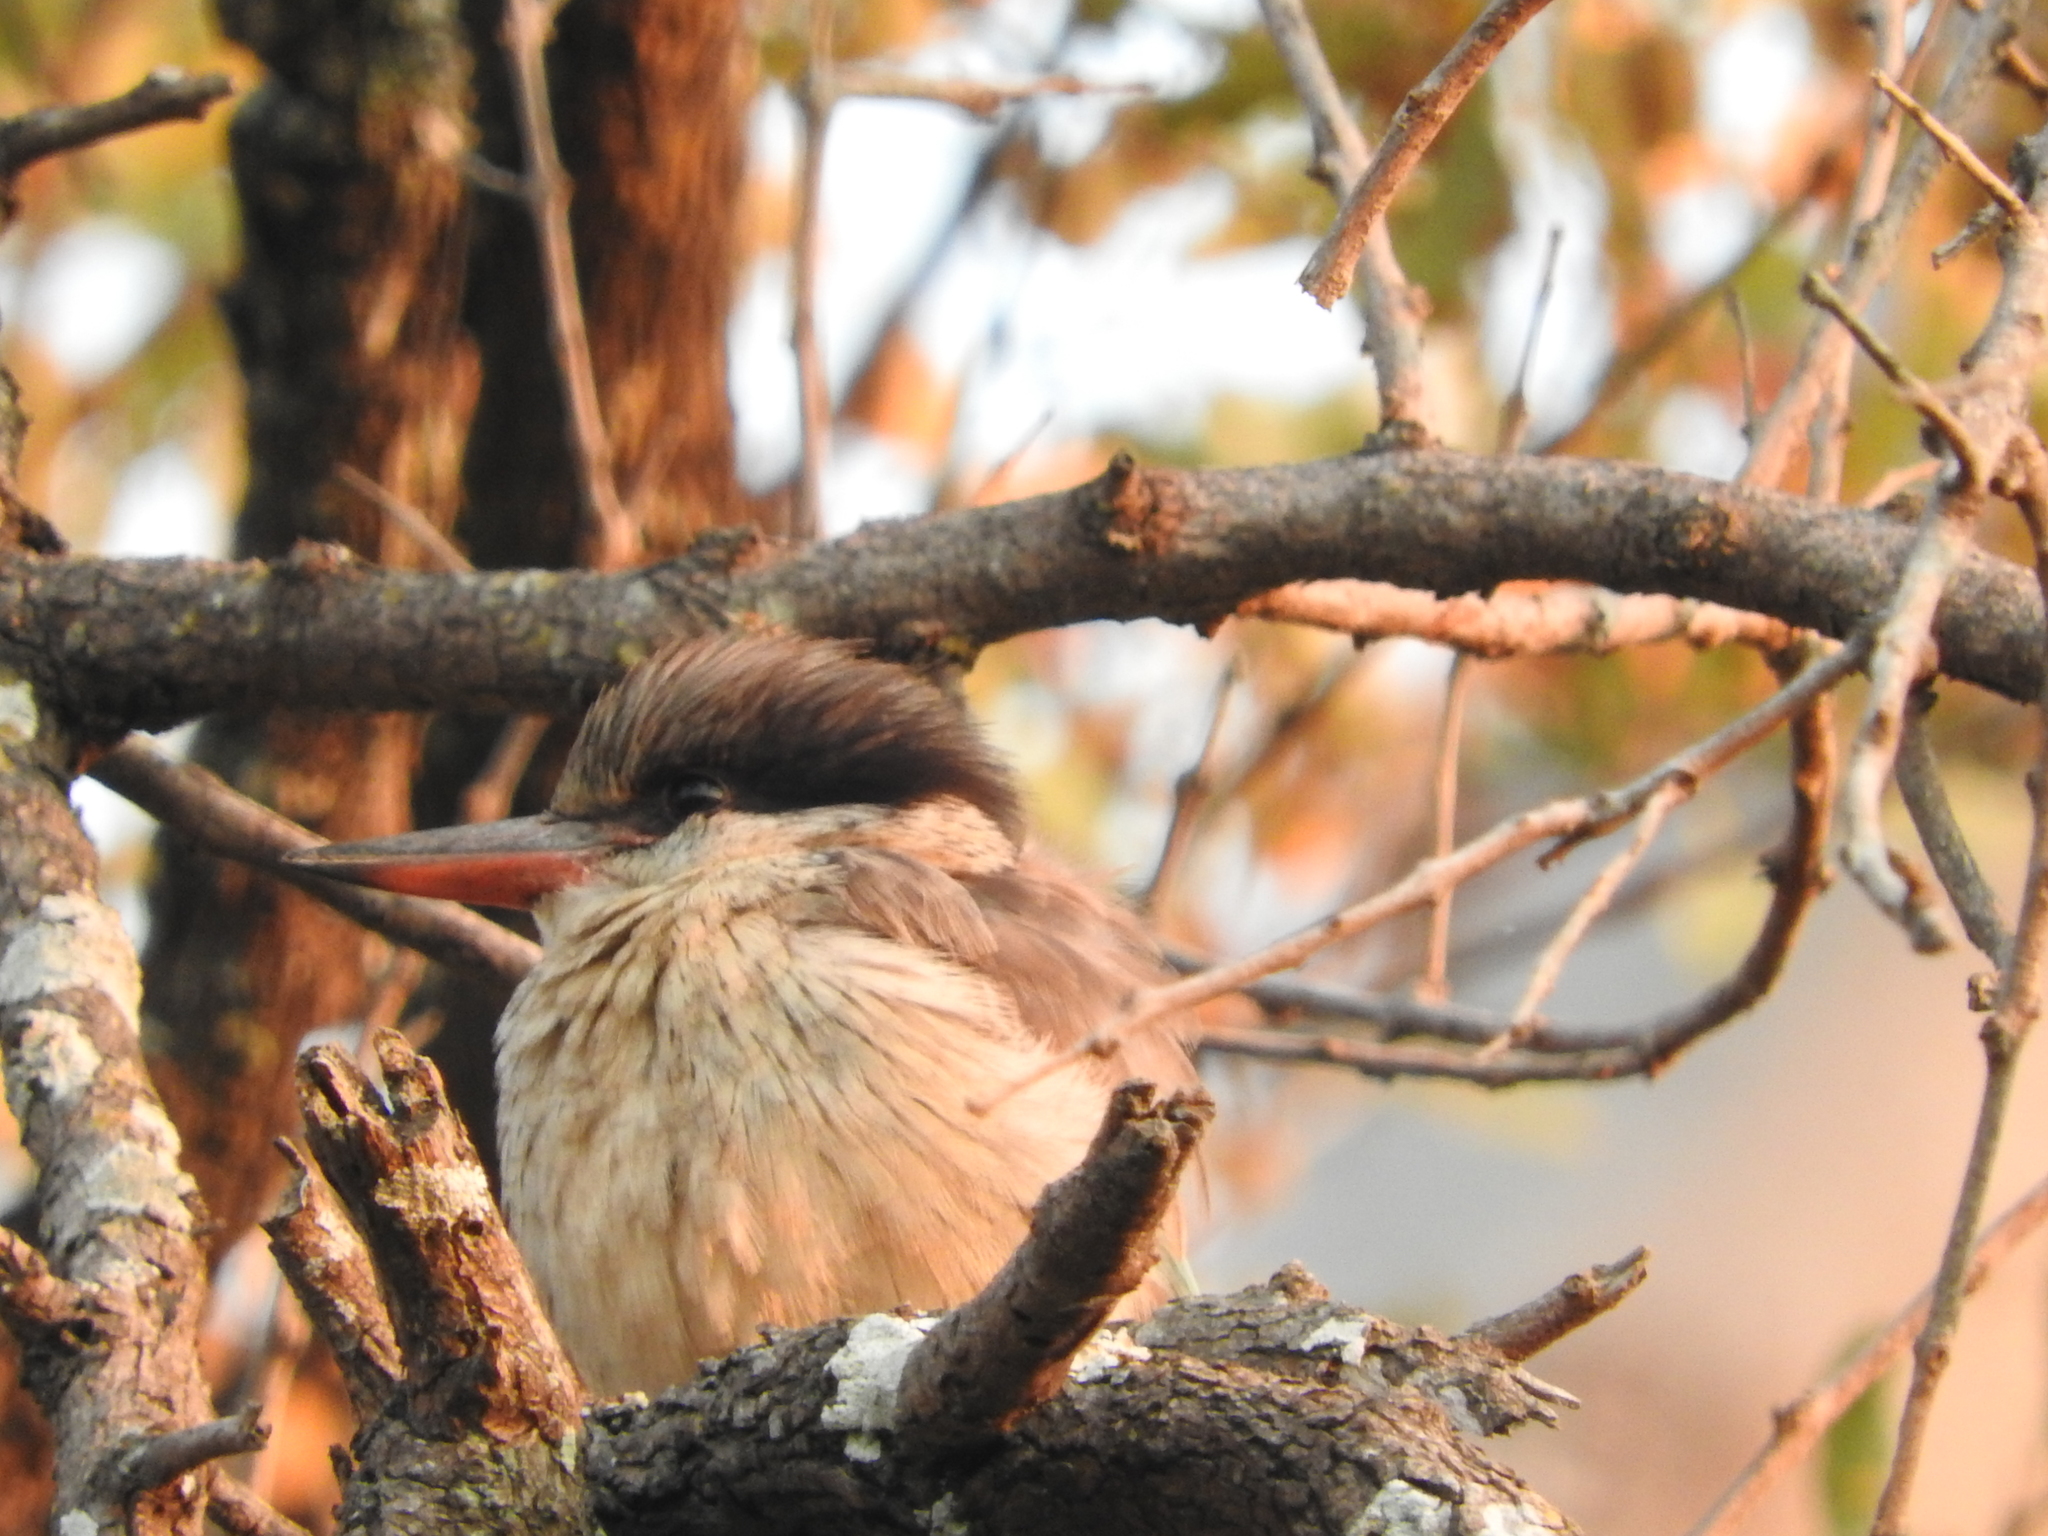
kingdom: Animalia
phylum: Chordata
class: Aves
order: Coraciiformes
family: Alcedinidae
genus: Halcyon
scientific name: Halcyon chelicuti
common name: Striped kingfisher
